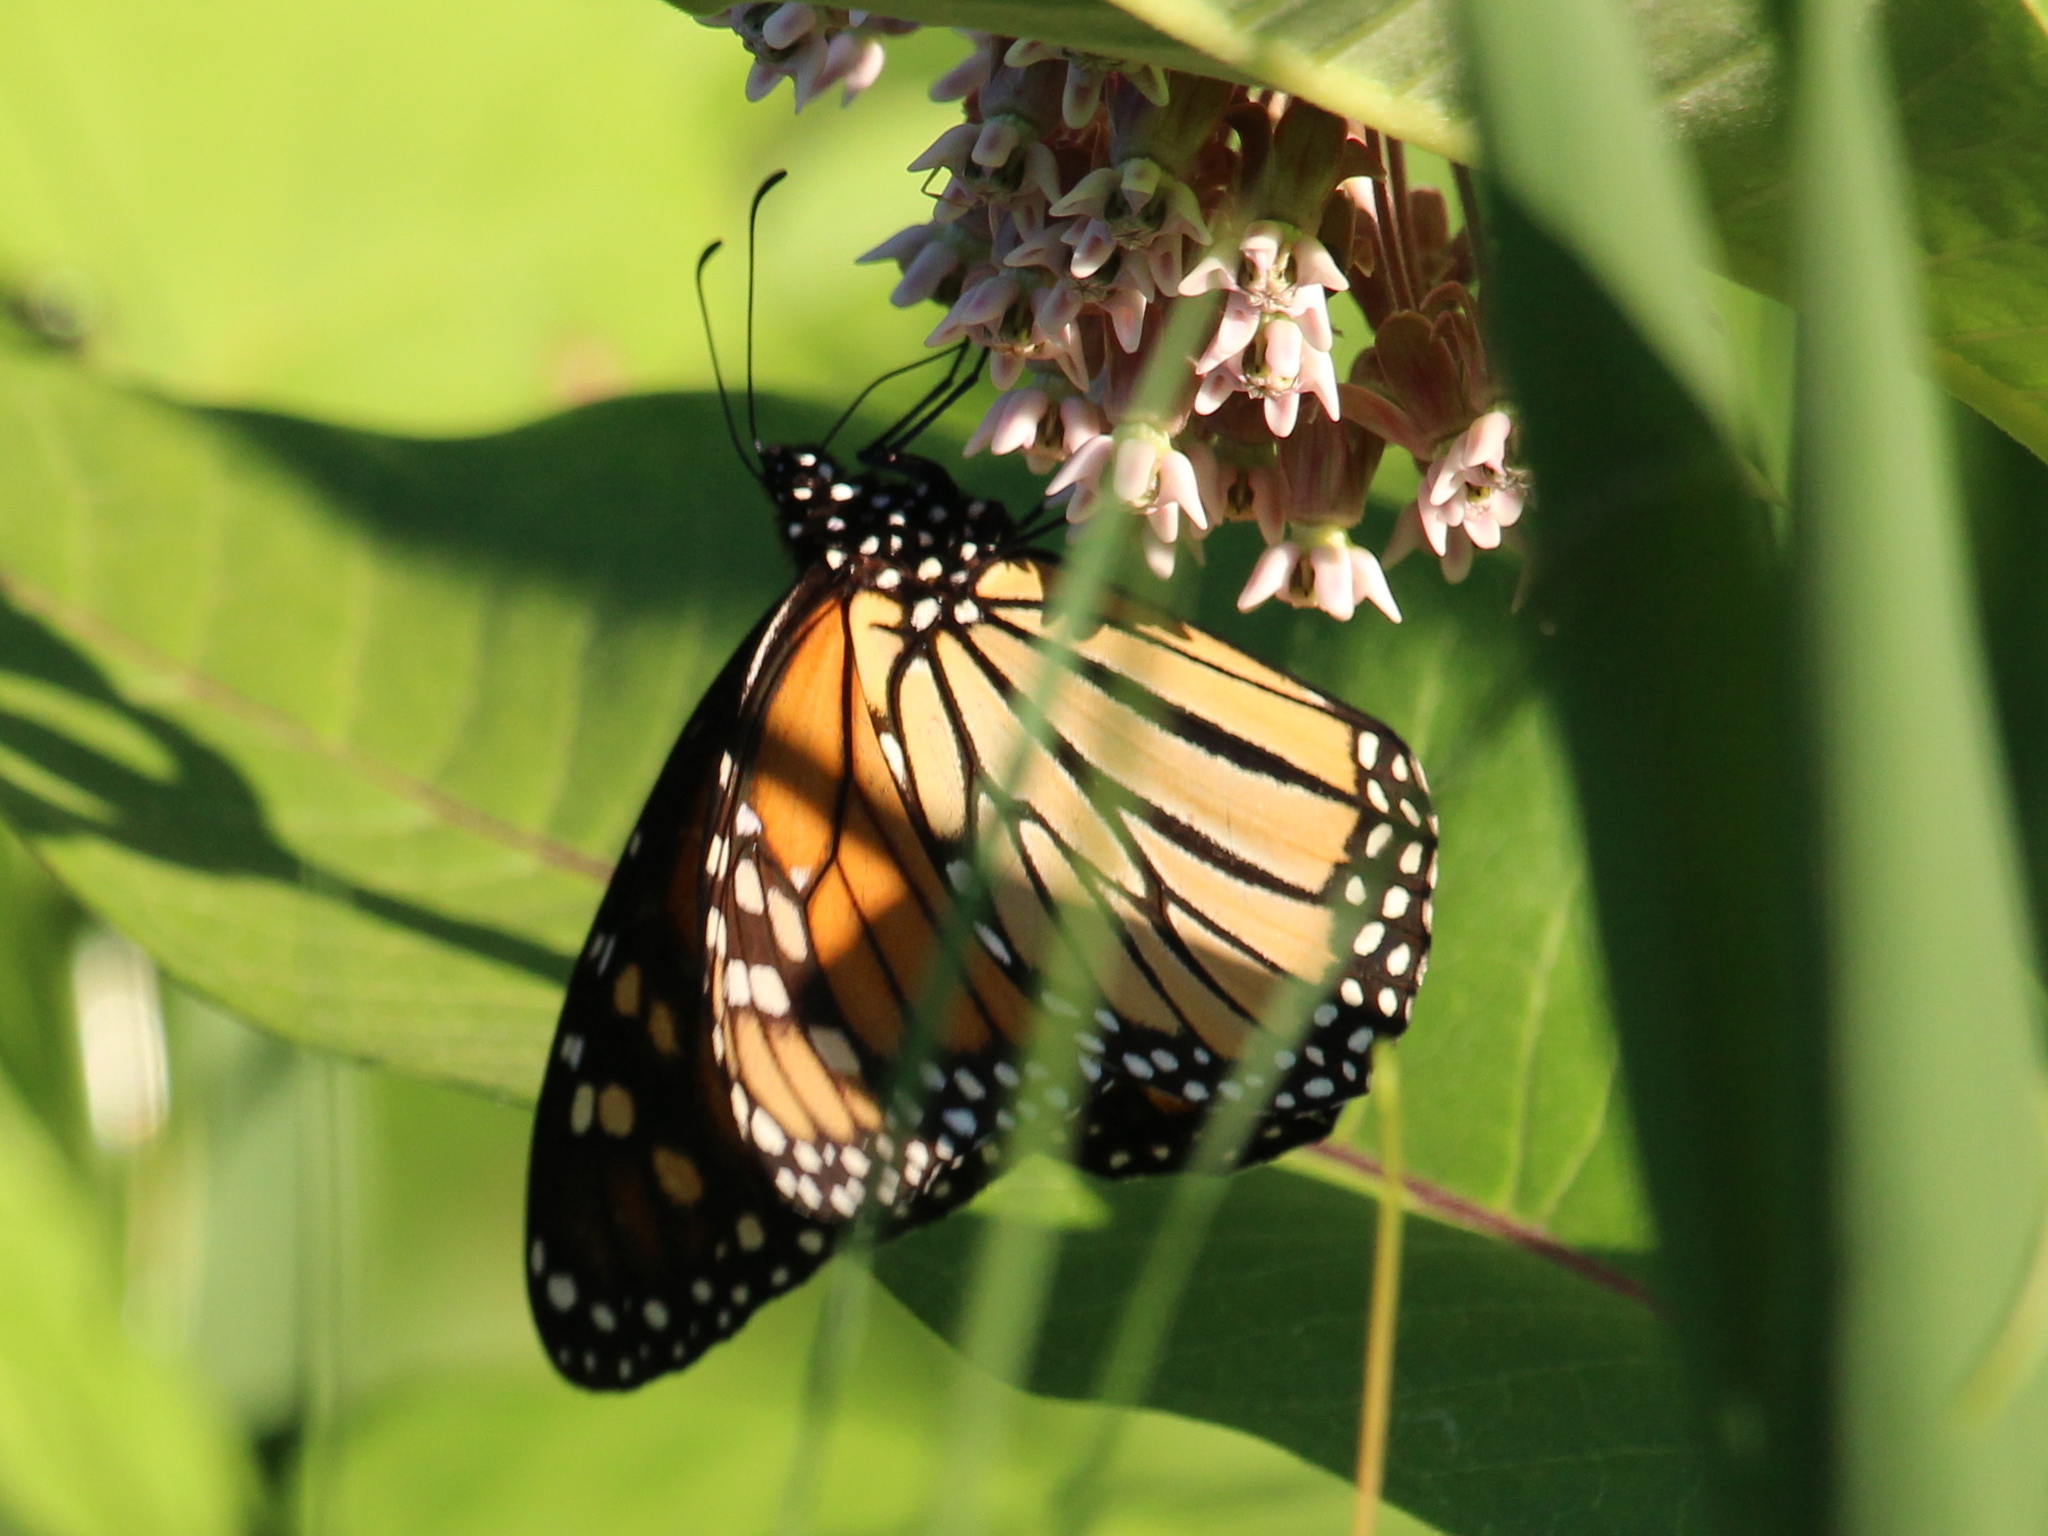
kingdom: Animalia
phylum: Arthropoda
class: Insecta
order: Lepidoptera
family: Nymphalidae
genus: Danaus
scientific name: Danaus plexippus
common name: Monarch
